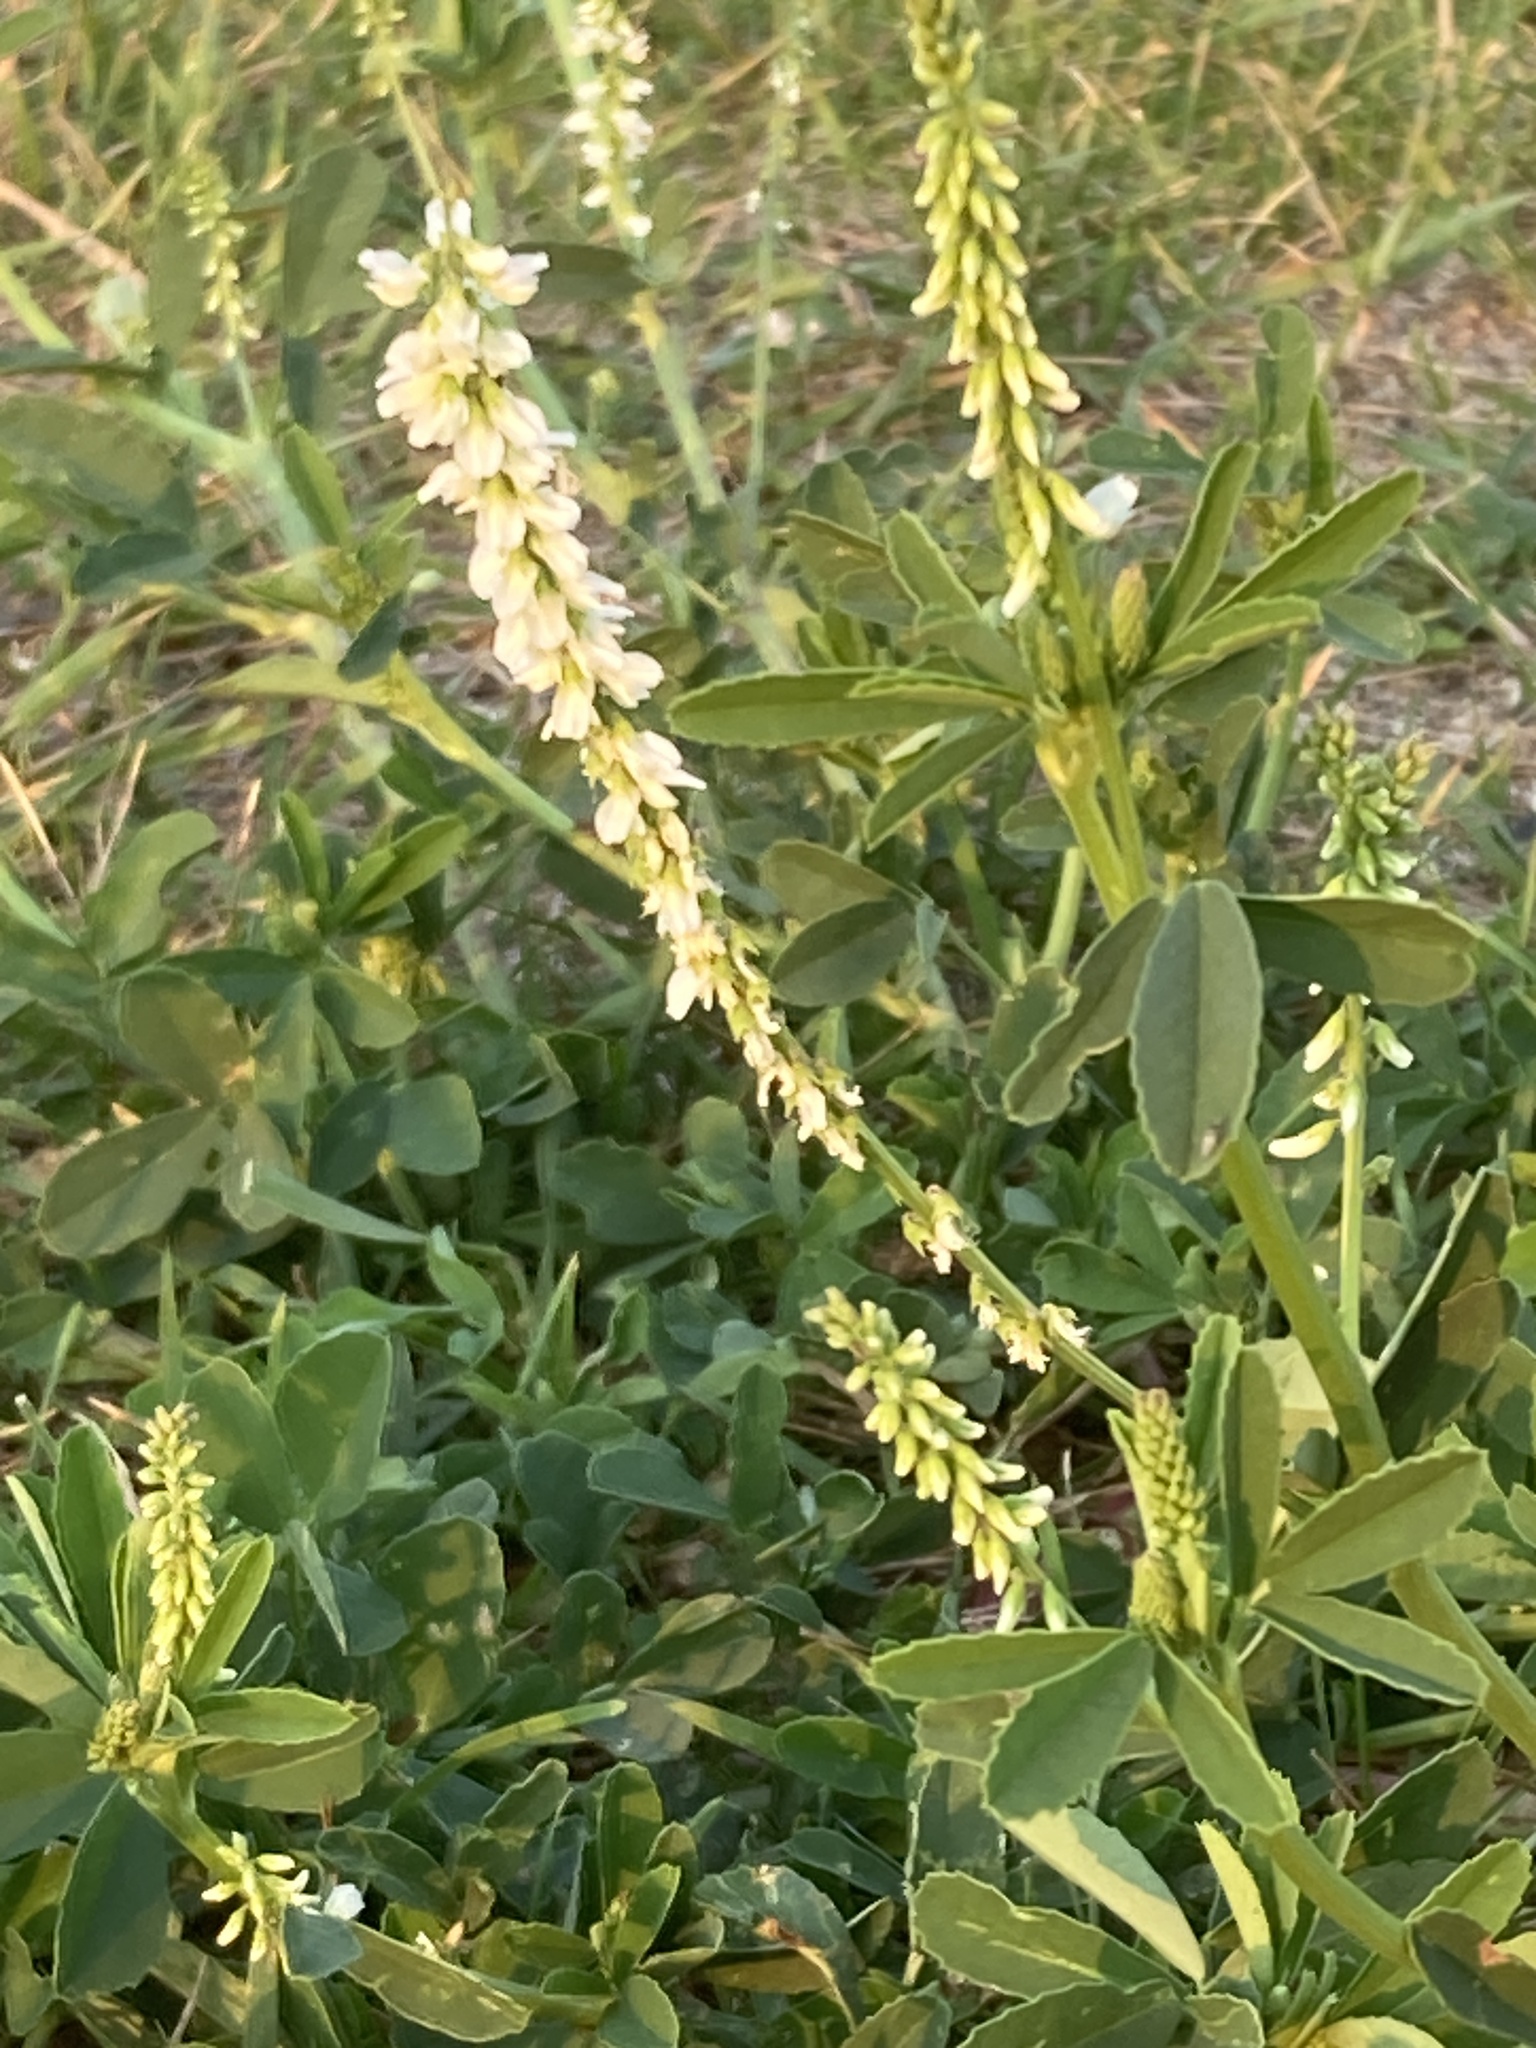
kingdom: Plantae
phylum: Tracheophyta
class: Magnoliopsida
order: Fabales
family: Fabaceae
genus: Melilotus
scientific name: Melilotus albus
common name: White melilot
